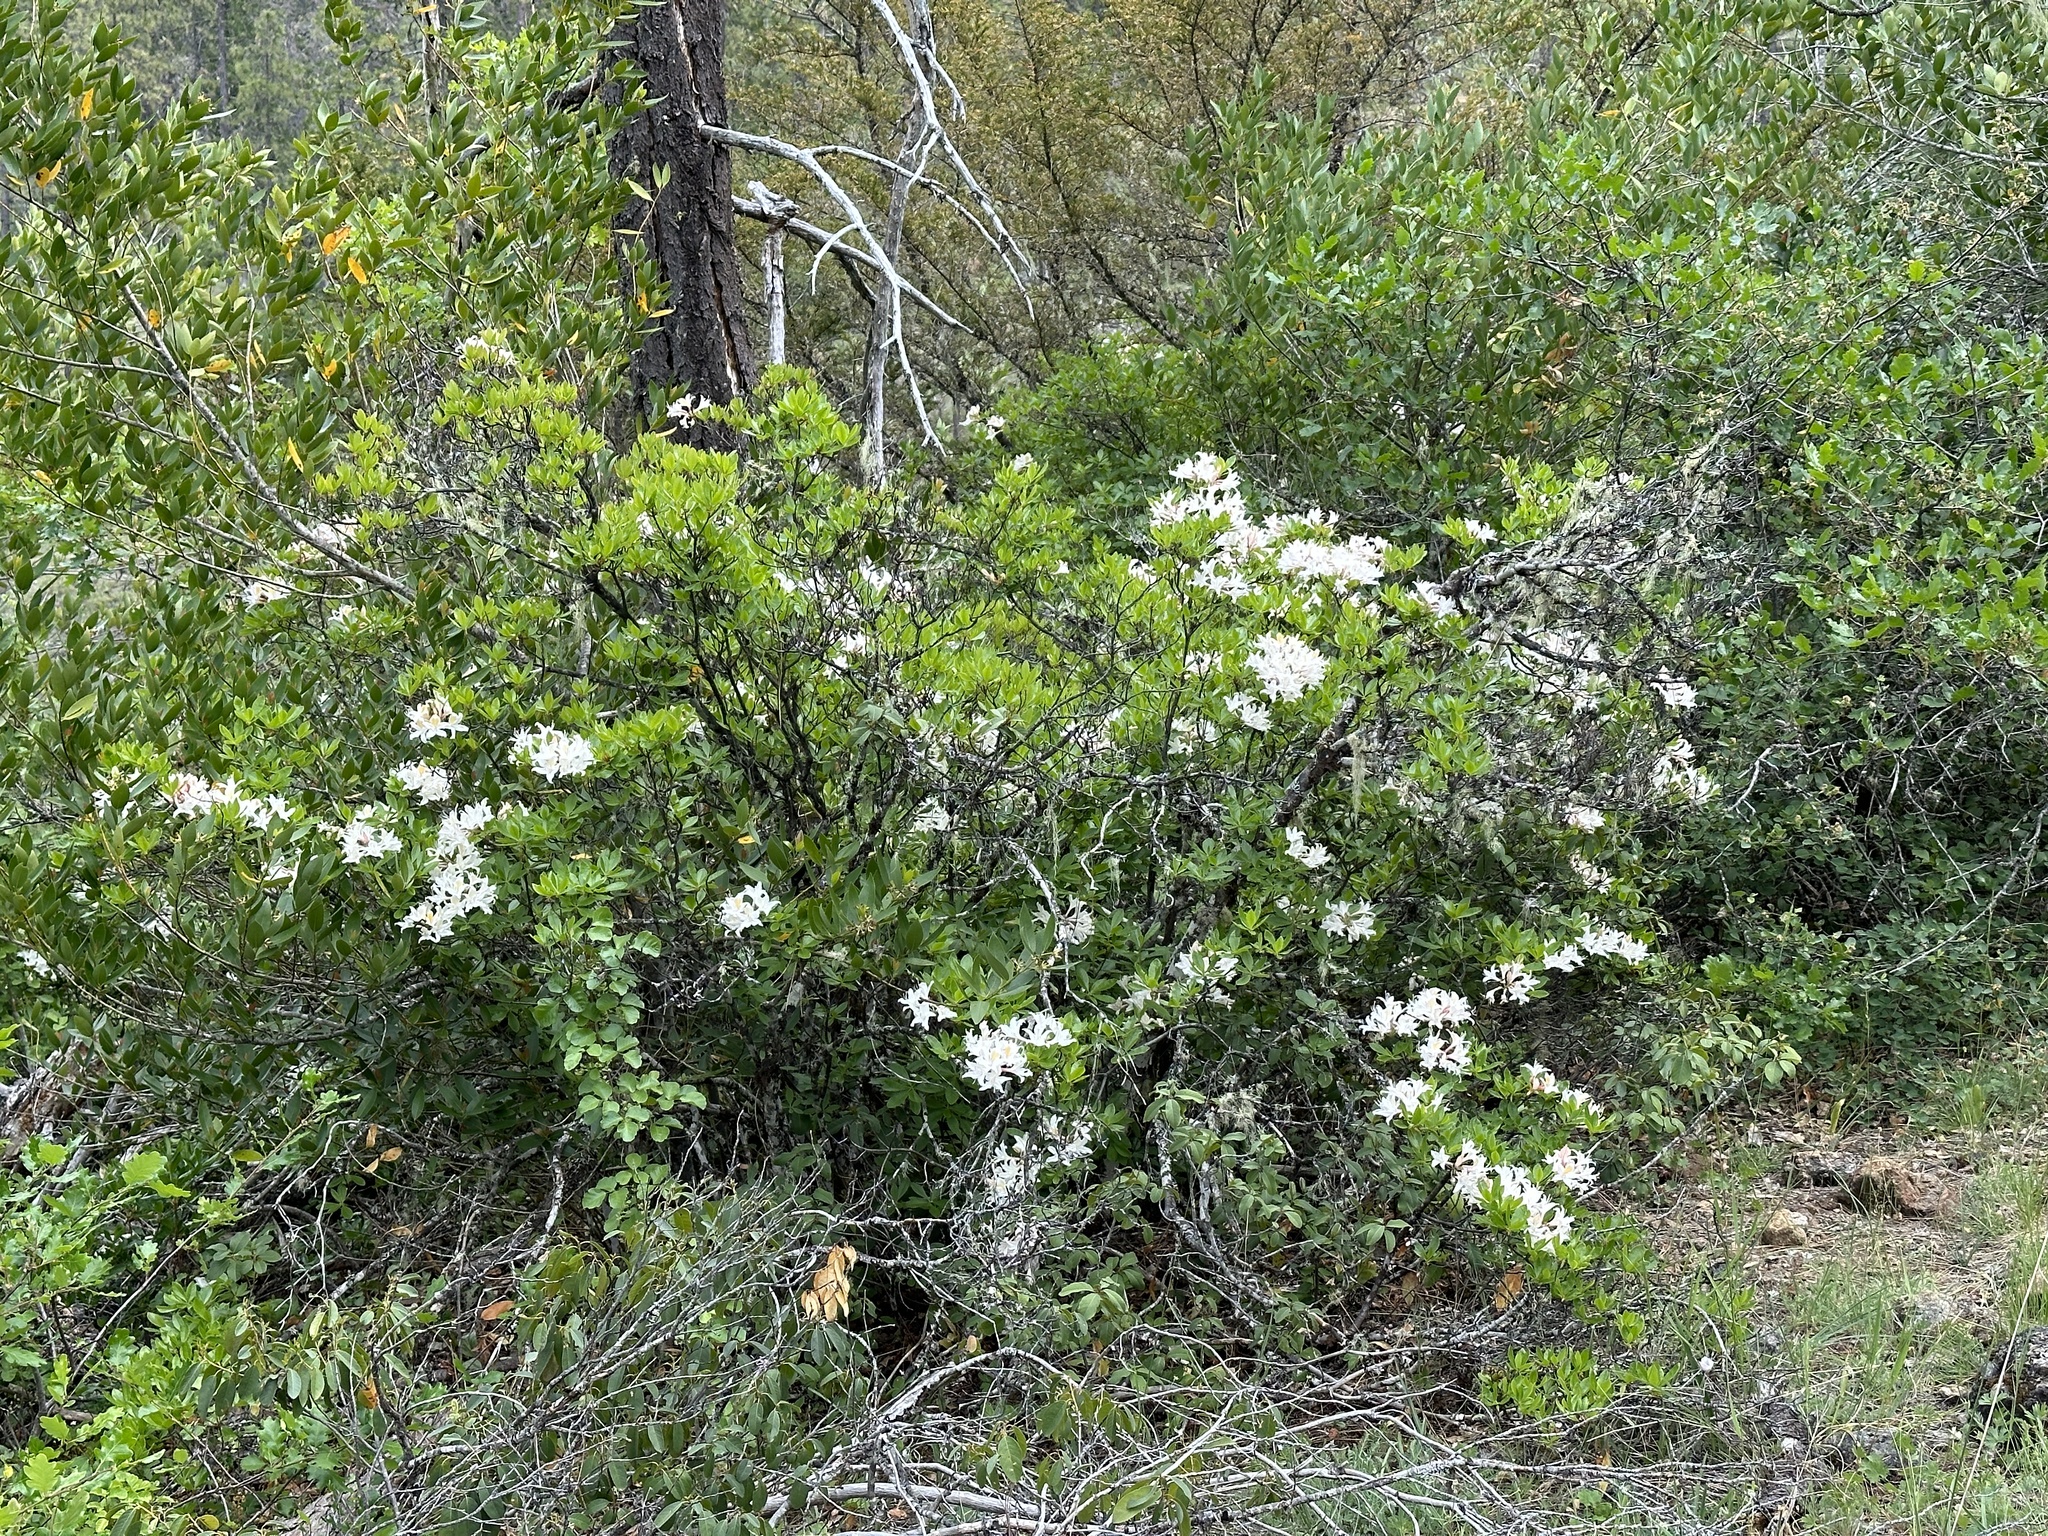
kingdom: Plantae
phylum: Tracheophyta
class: Magnoliopsida
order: Ericales
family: Ericaceae
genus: Rhododendron
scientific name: Rhododendron occidentale
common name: Western azalea
